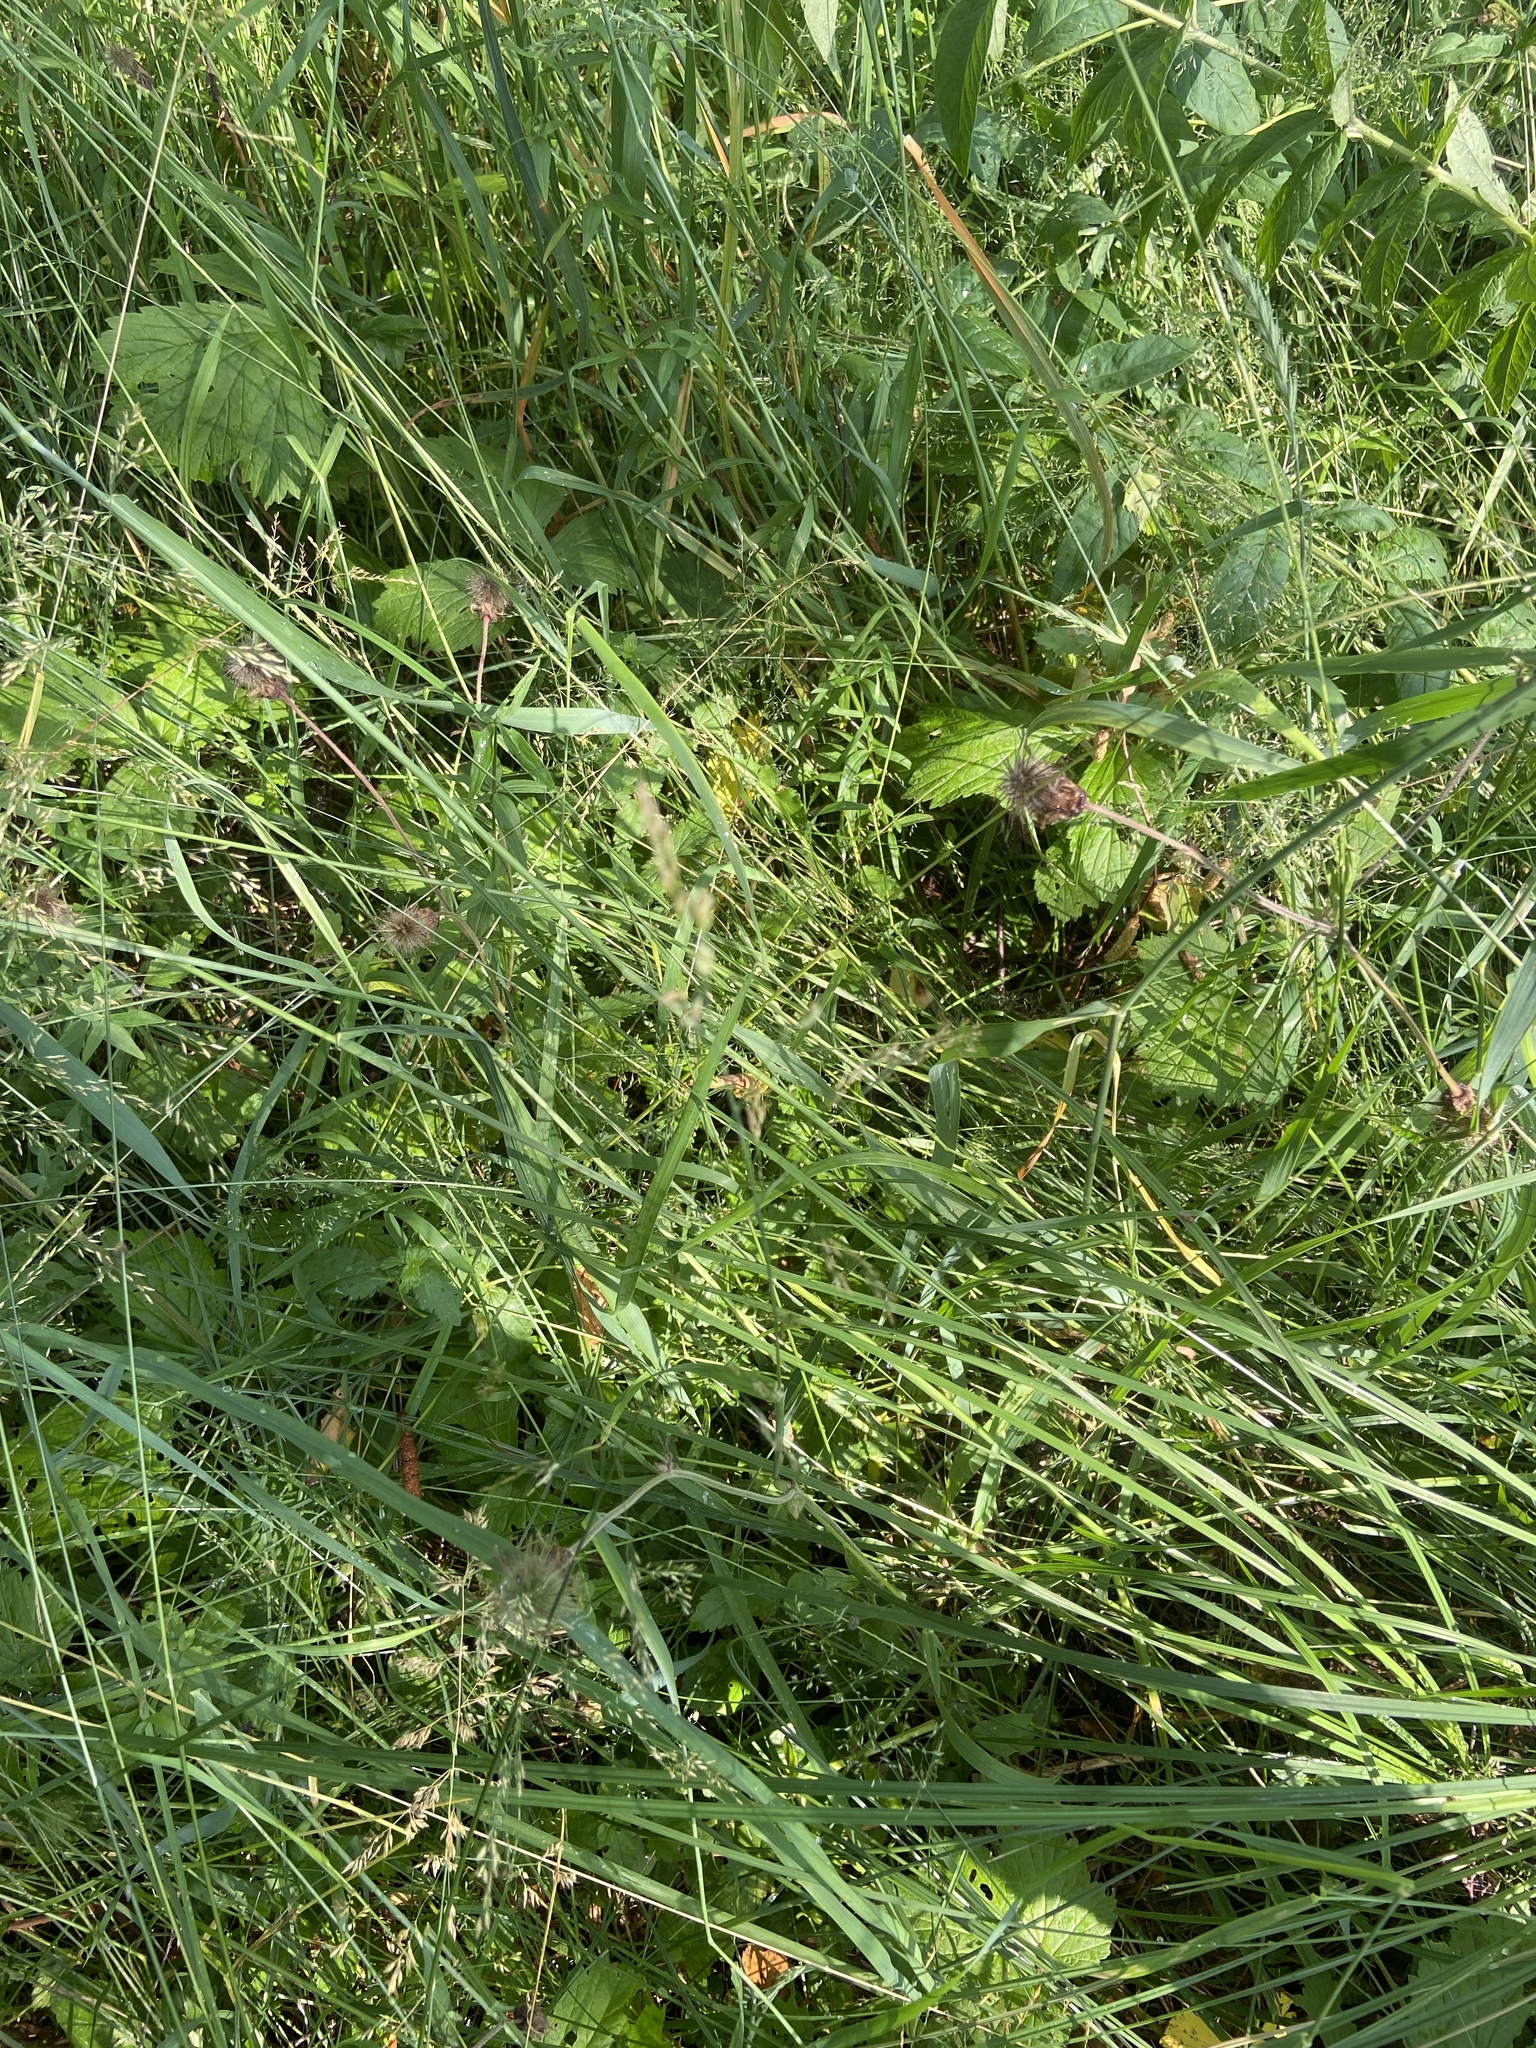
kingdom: Plantae
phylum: Tracheophyta
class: Magnoliopsida
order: Rosales
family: Rosaceae
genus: Geum
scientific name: Geum rivale
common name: Water avens
